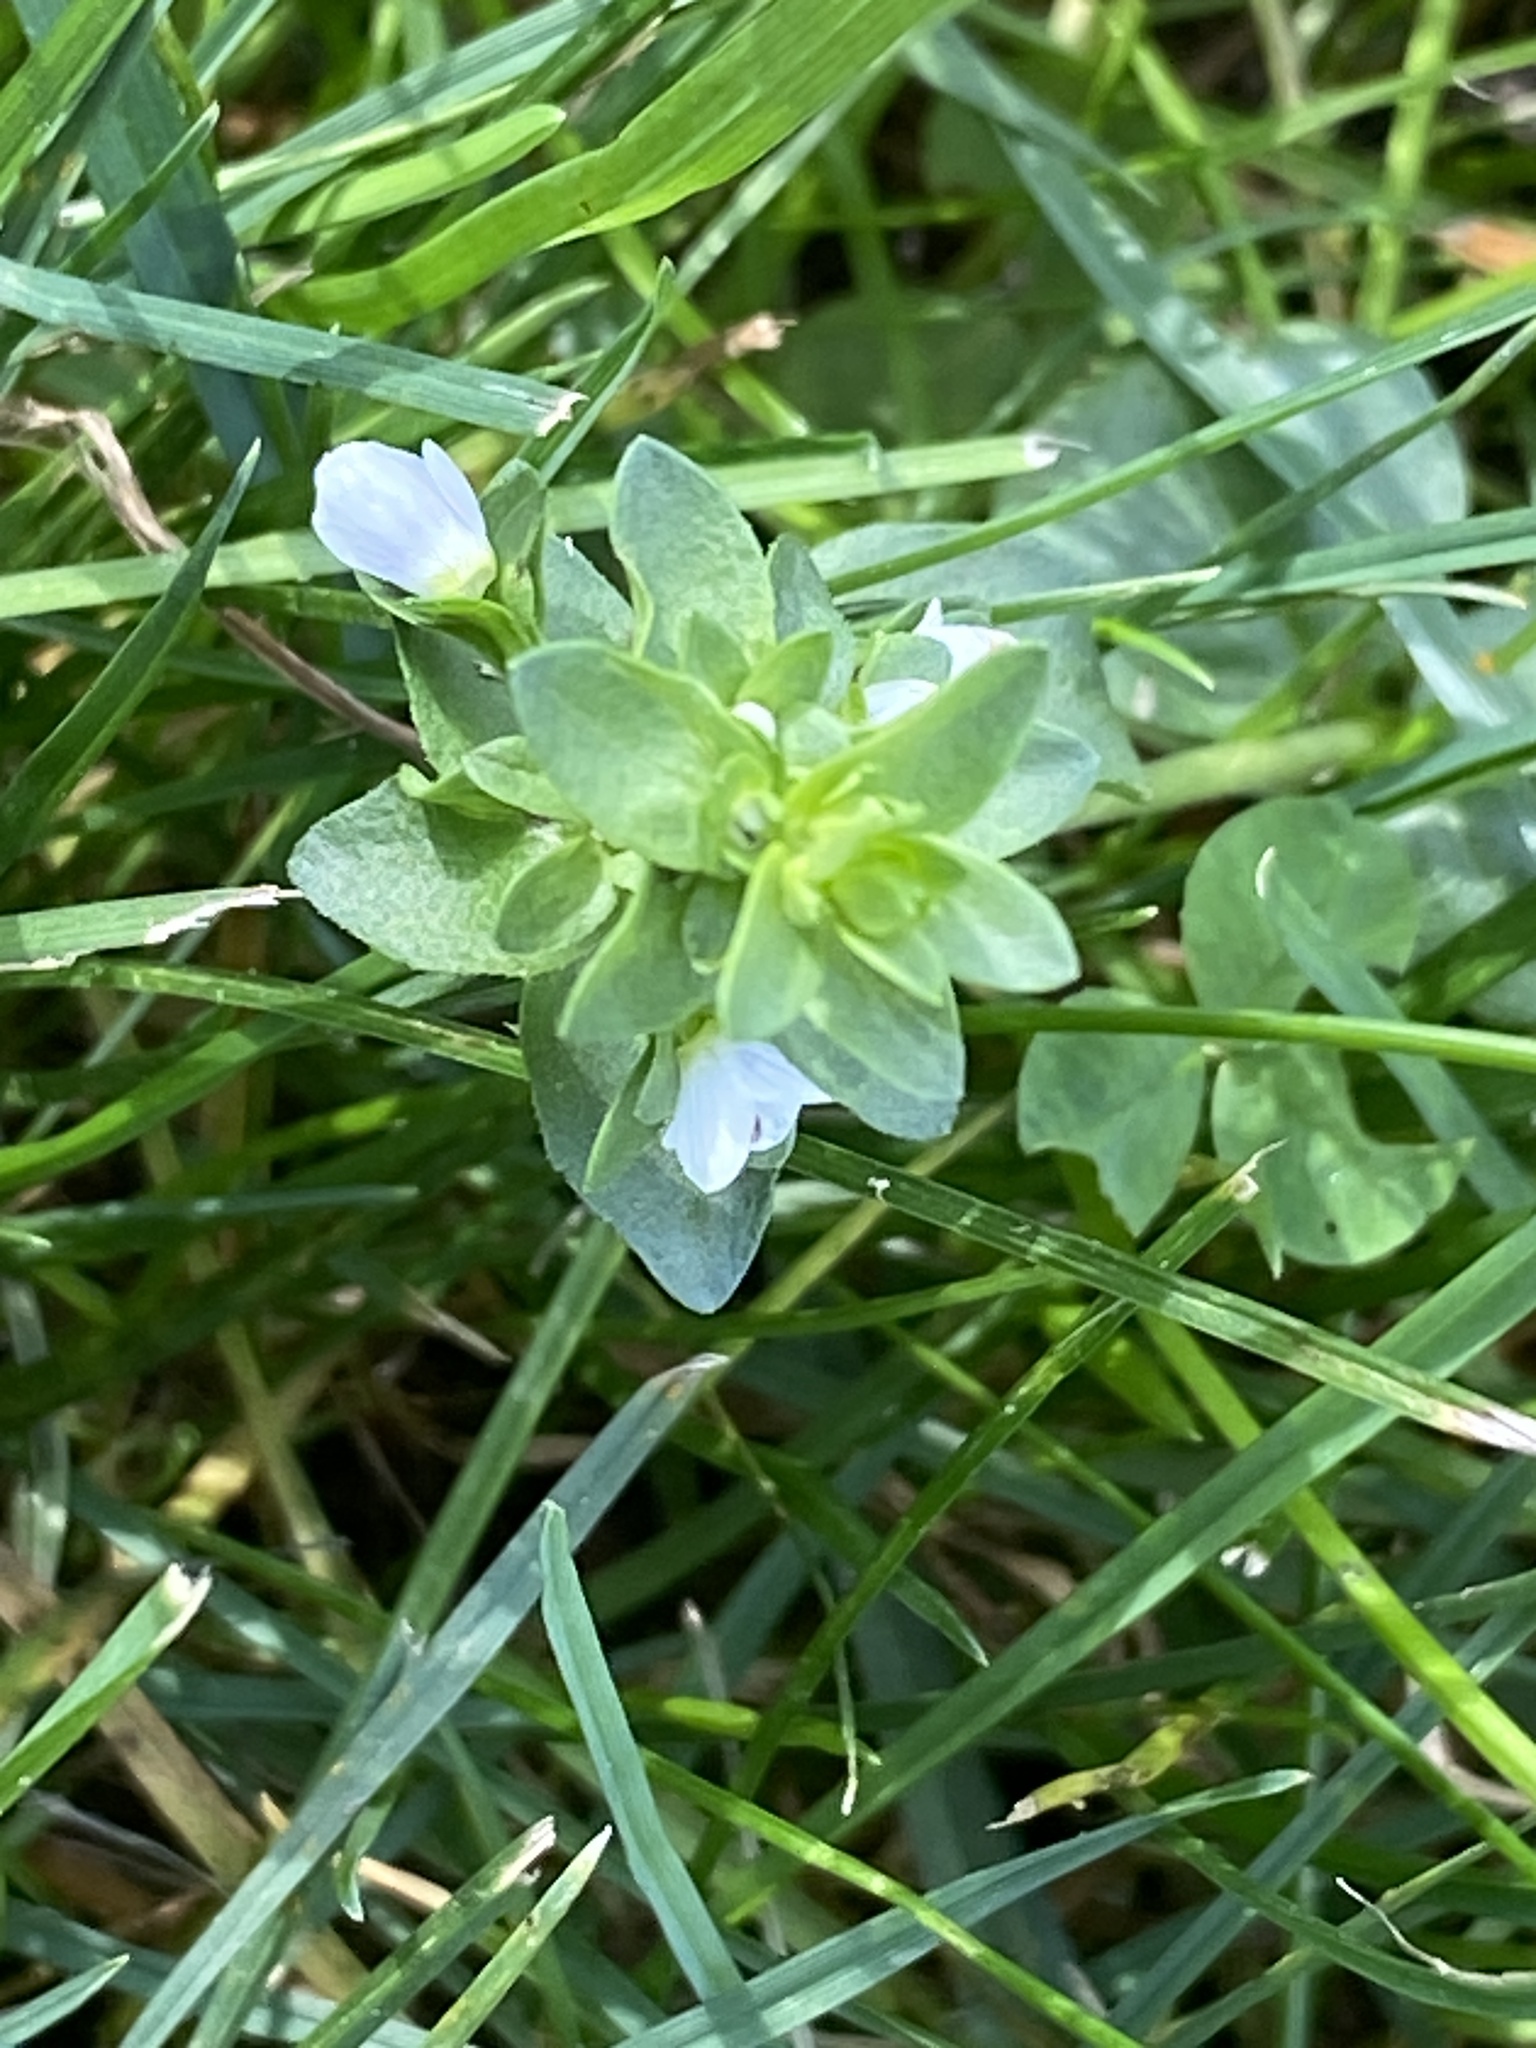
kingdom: Plantae
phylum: Tracheophyta
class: Magnoliopsida
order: Lamiales
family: Plantaginaceae
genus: Veronica
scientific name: Veronica serpyllifolia
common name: Thyme-leaved speedwell
